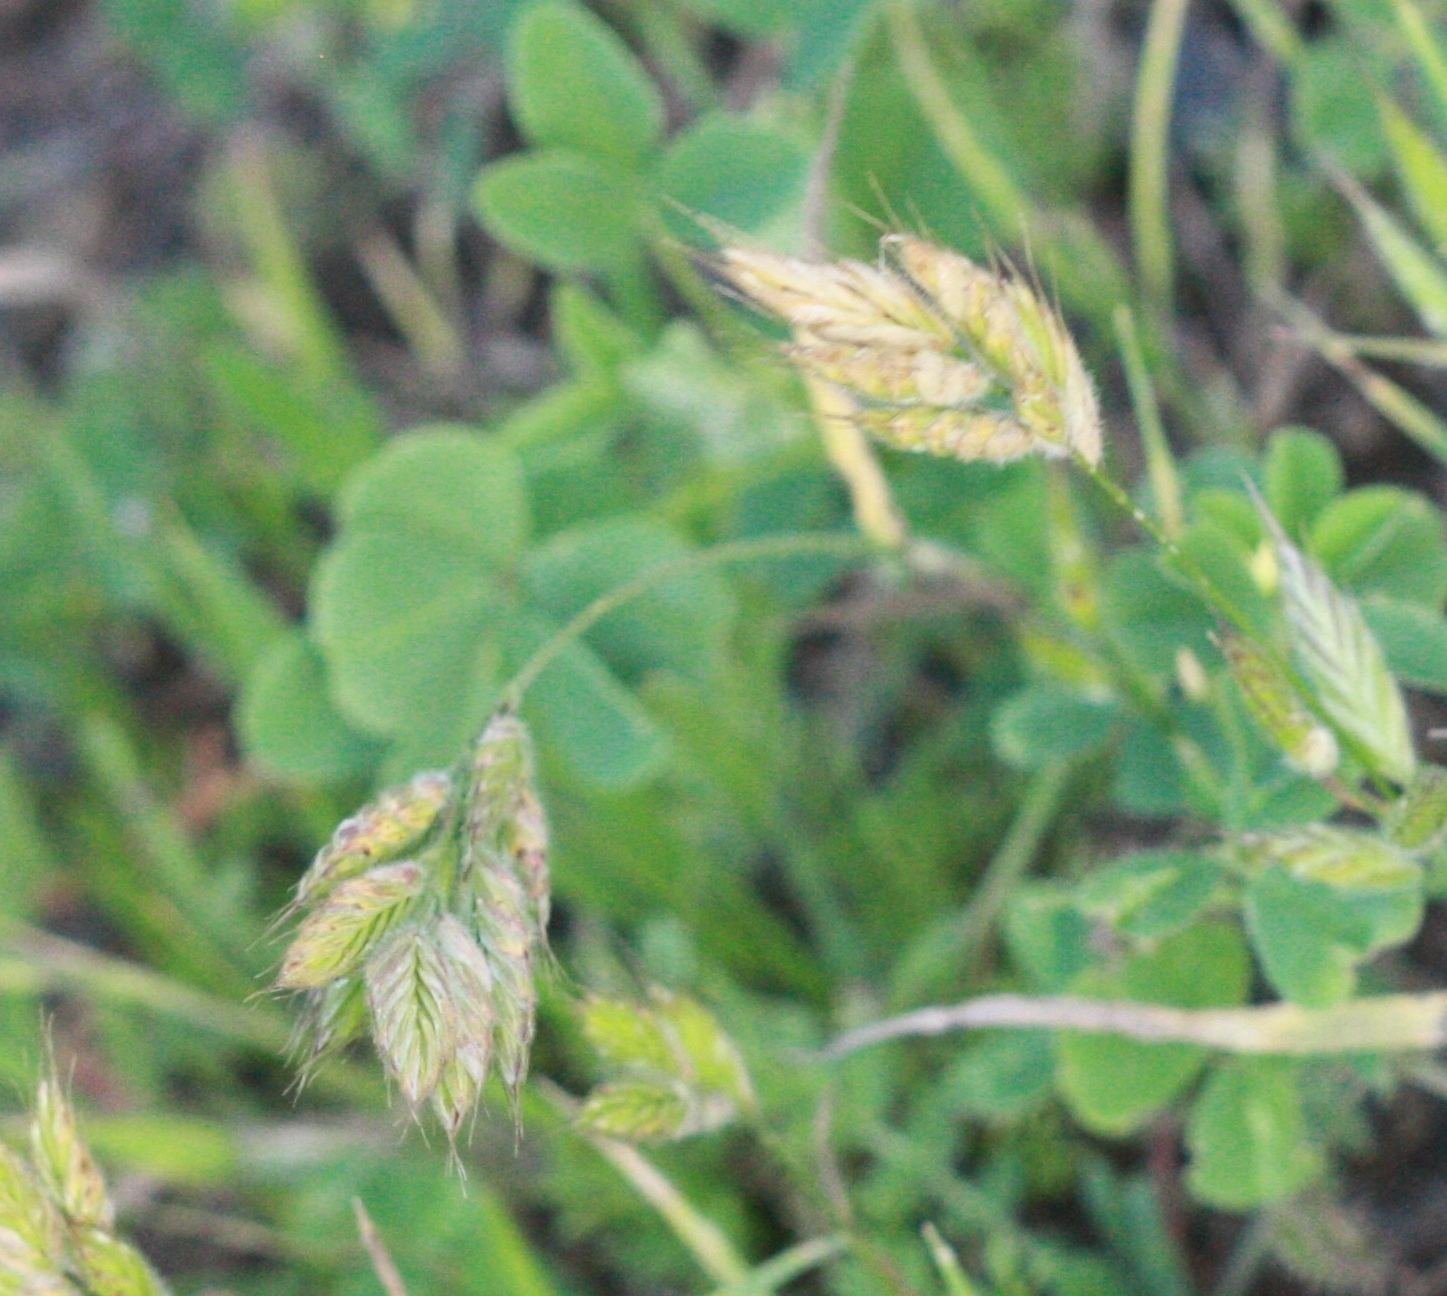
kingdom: Plantae
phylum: Tracheophyta
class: Liliopsida
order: Poales
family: Poaceae
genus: Bromus
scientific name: Bromus hordeaceus
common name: Soft brome
